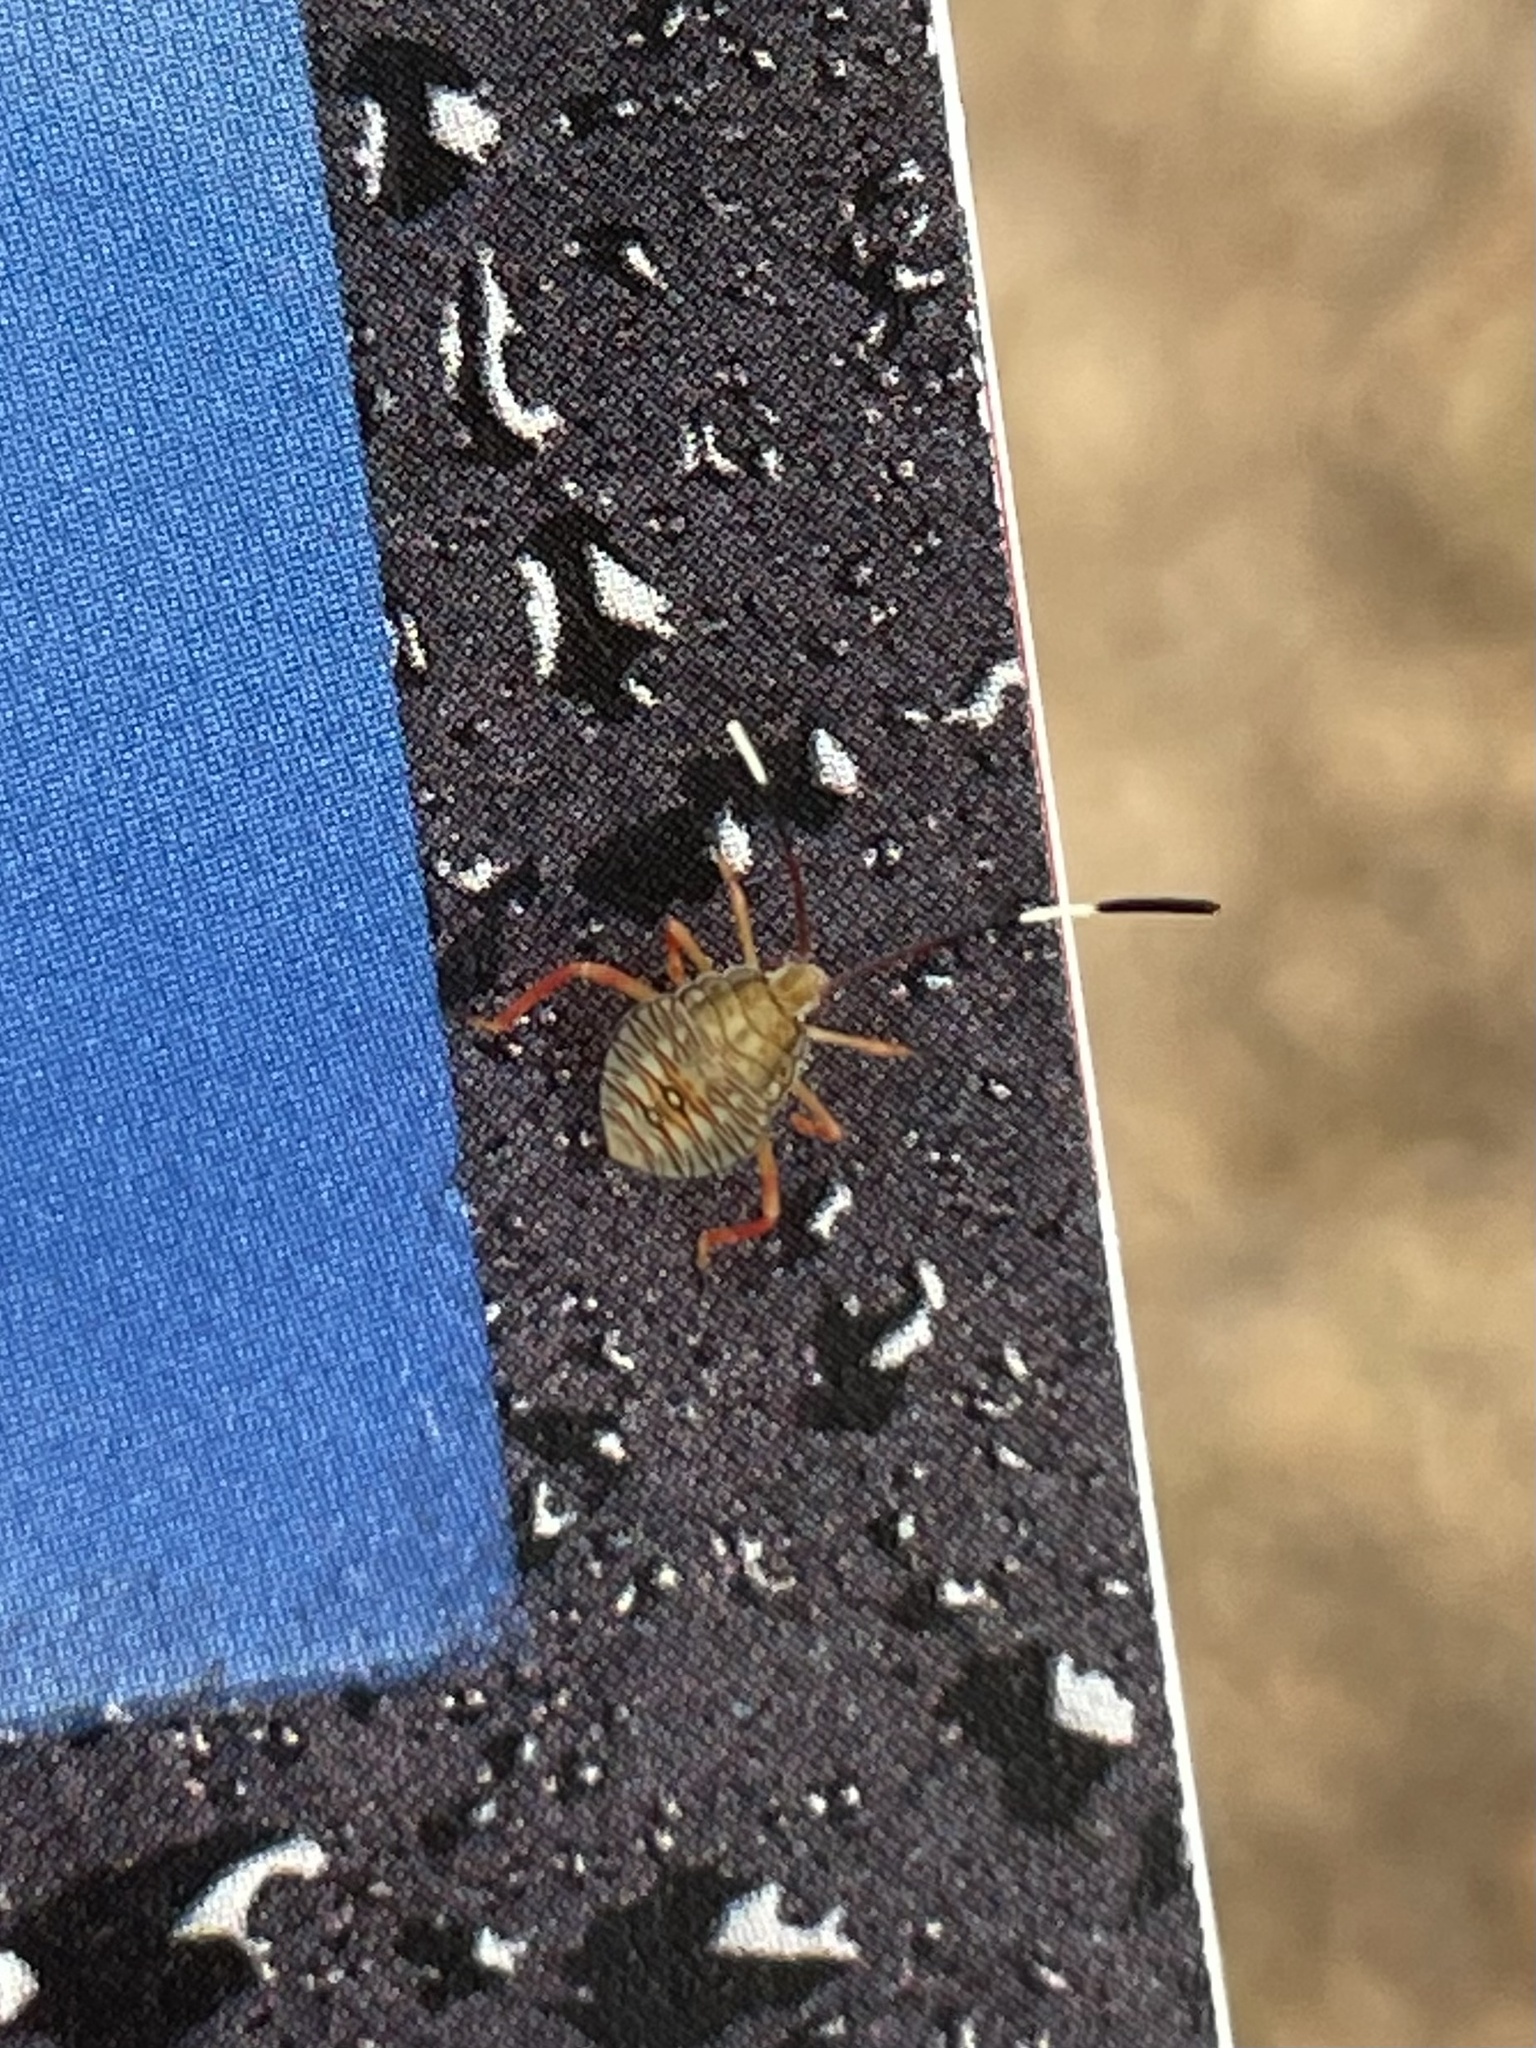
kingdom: Animalia
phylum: Arthropoda
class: Insecta
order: Hemiptera
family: Coreidae
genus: Savius
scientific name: Savius jurgiosus
